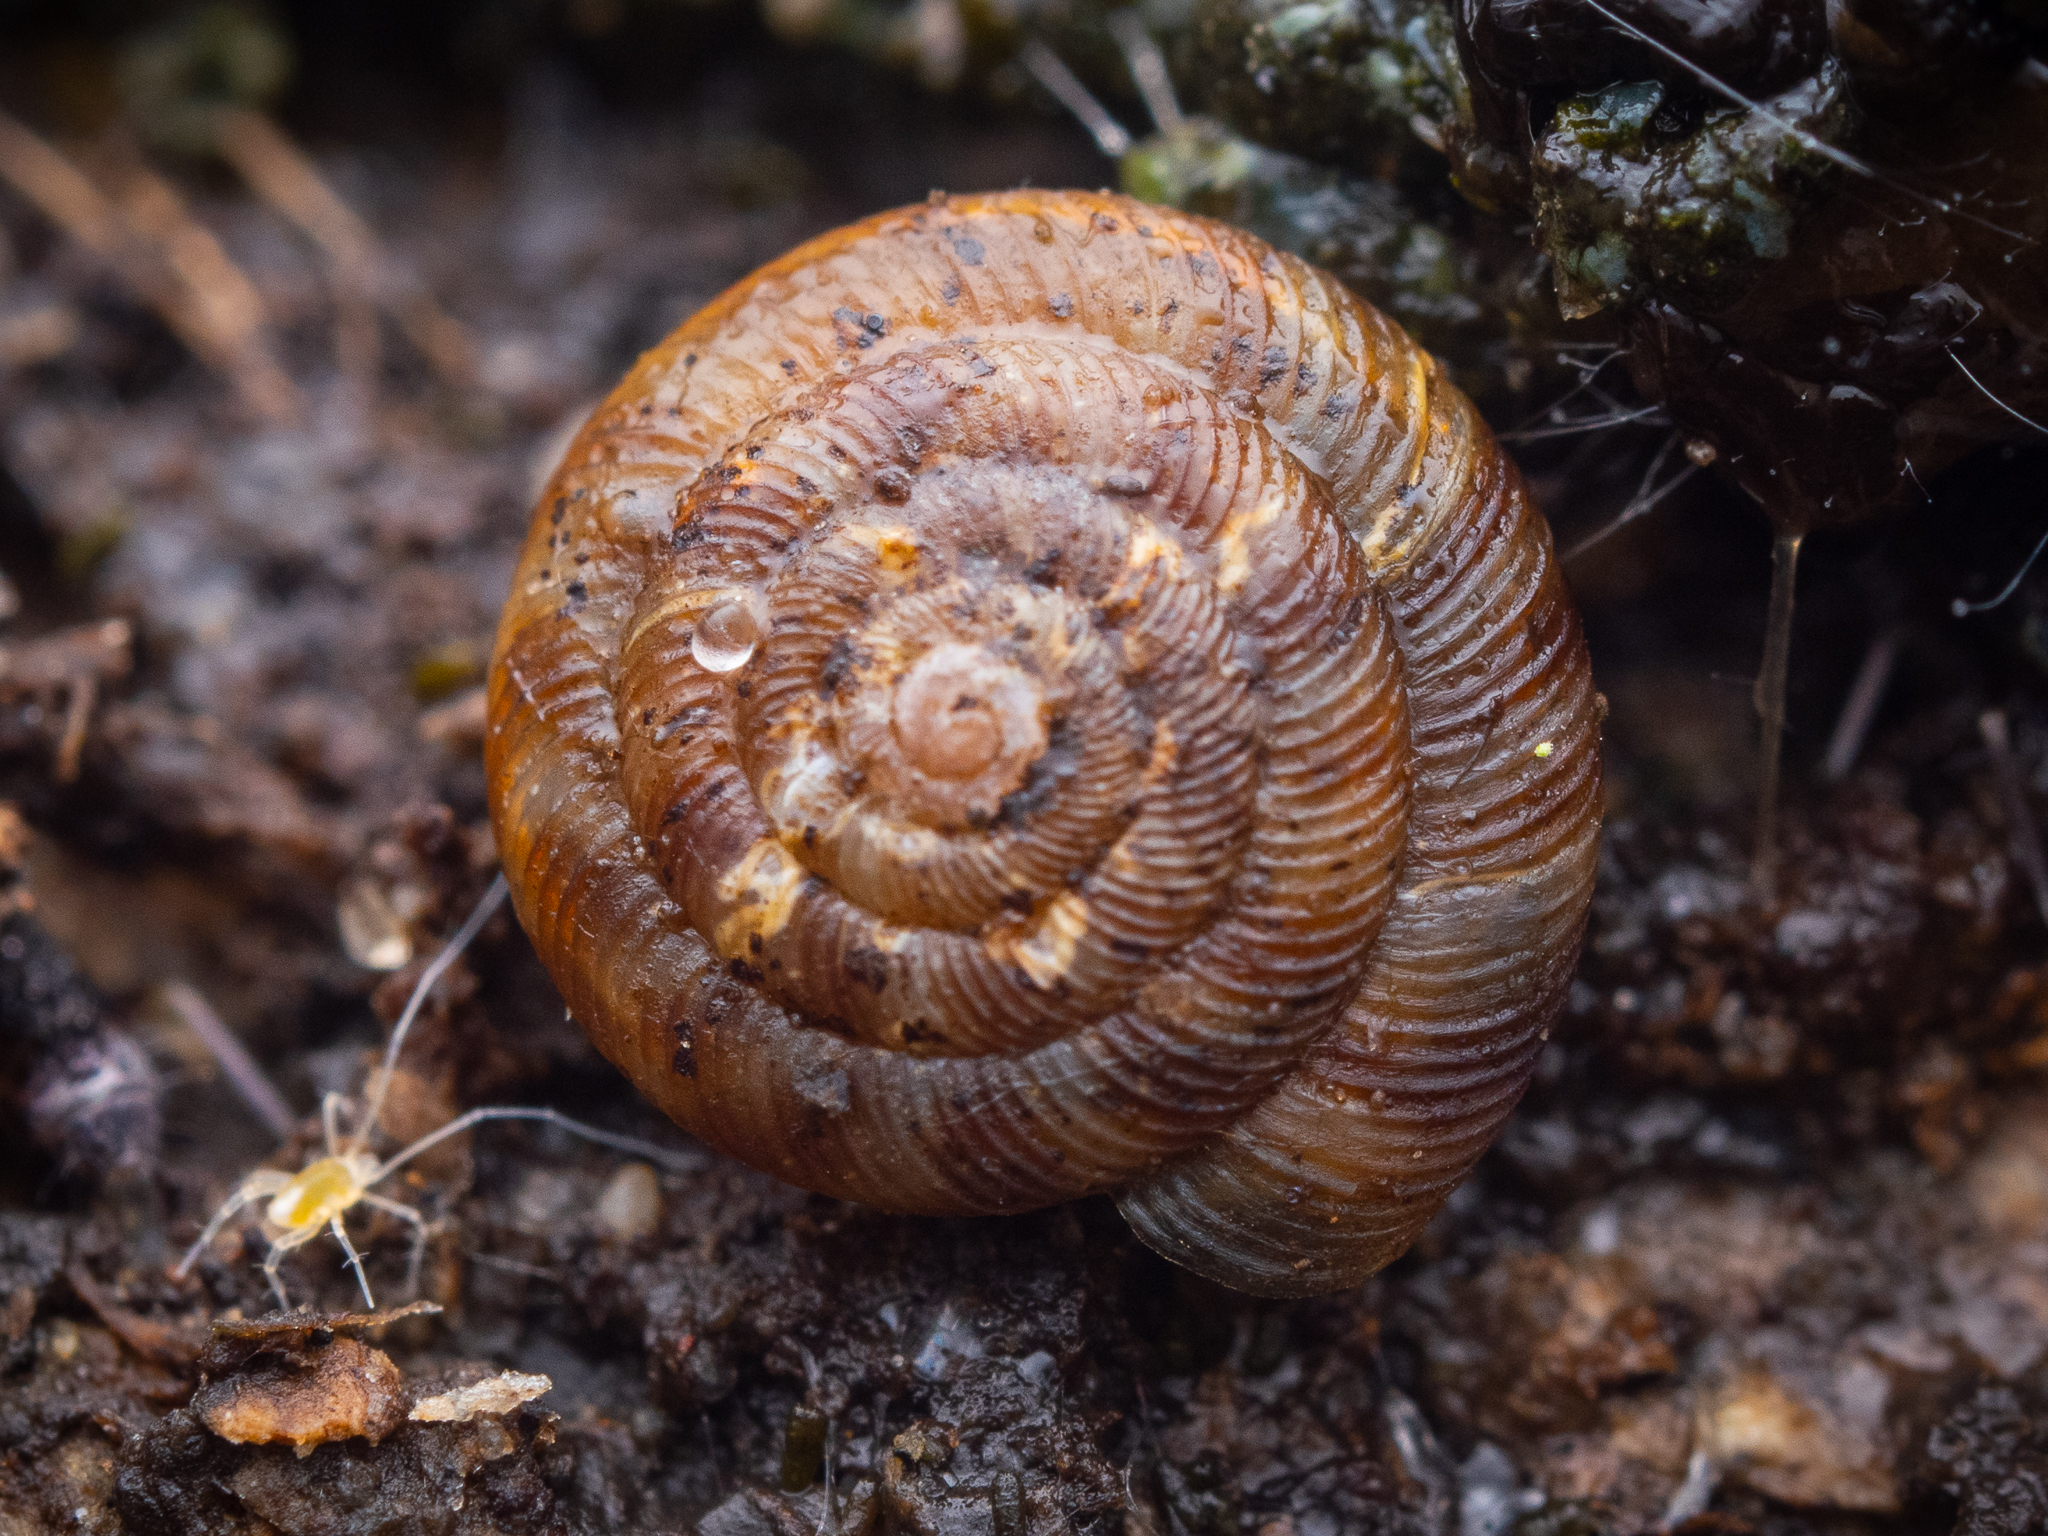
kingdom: Animalia
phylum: Mollusca
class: Gastropoda
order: Stylommatophora
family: Discidae
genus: Discus
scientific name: Discus rotundatus
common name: Rounded snail
